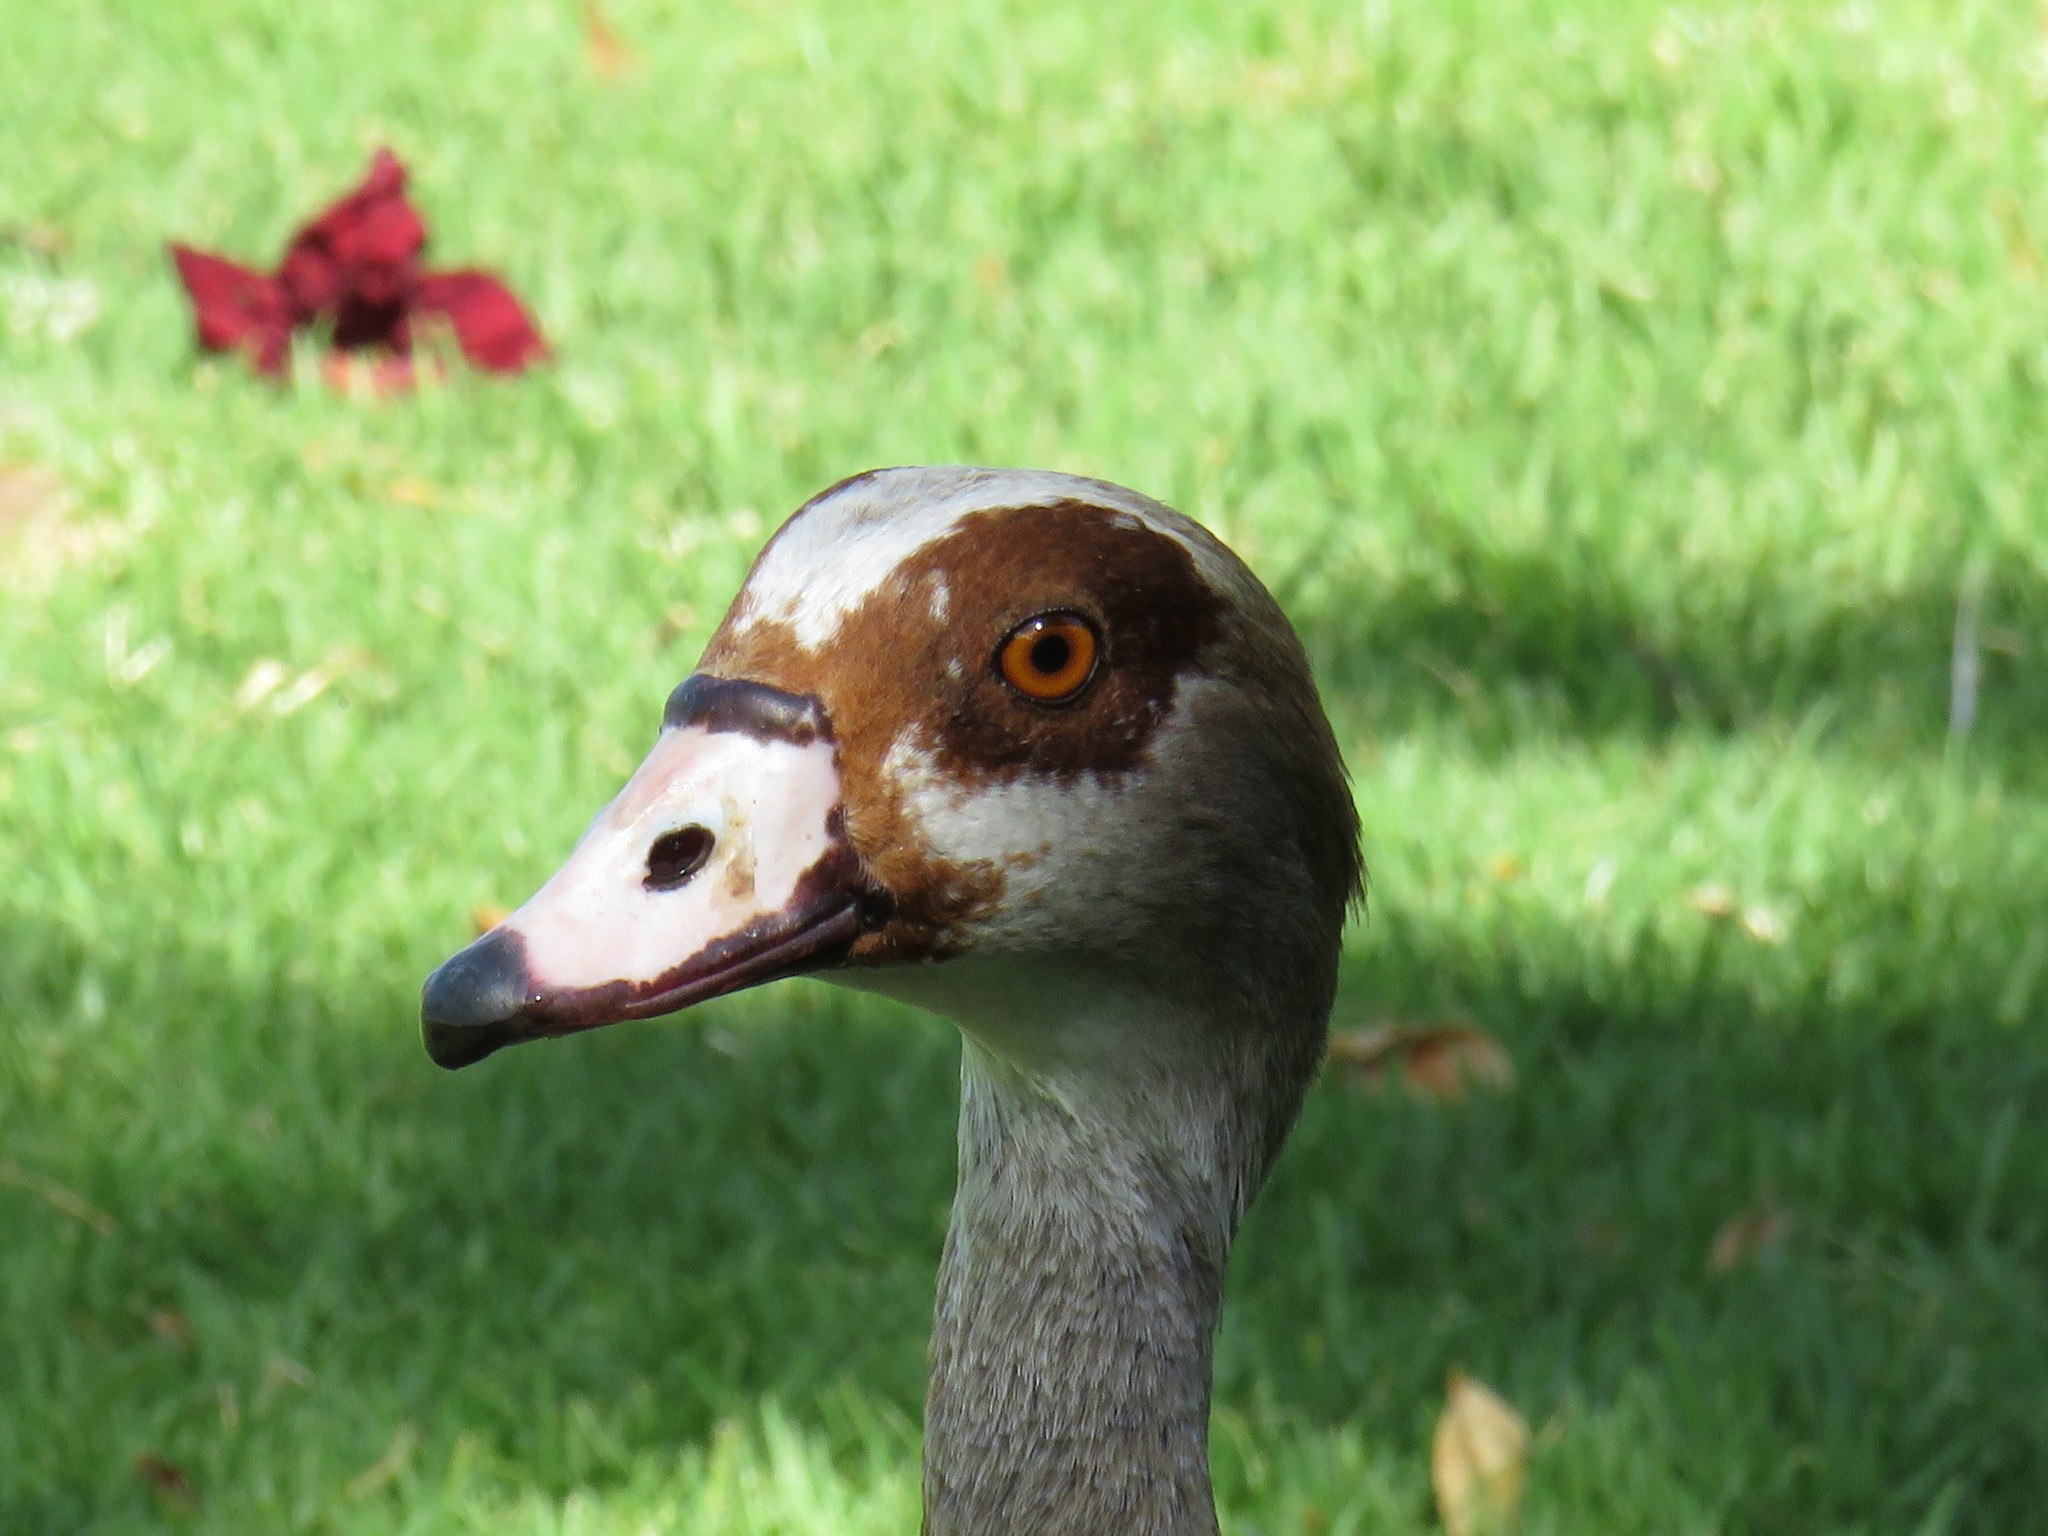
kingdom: Animalia
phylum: Chordata
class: Aves
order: Anseriformes
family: Anatidae
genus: Alopochen
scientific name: Alopochen aegyptiaca
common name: Egyptian goose
